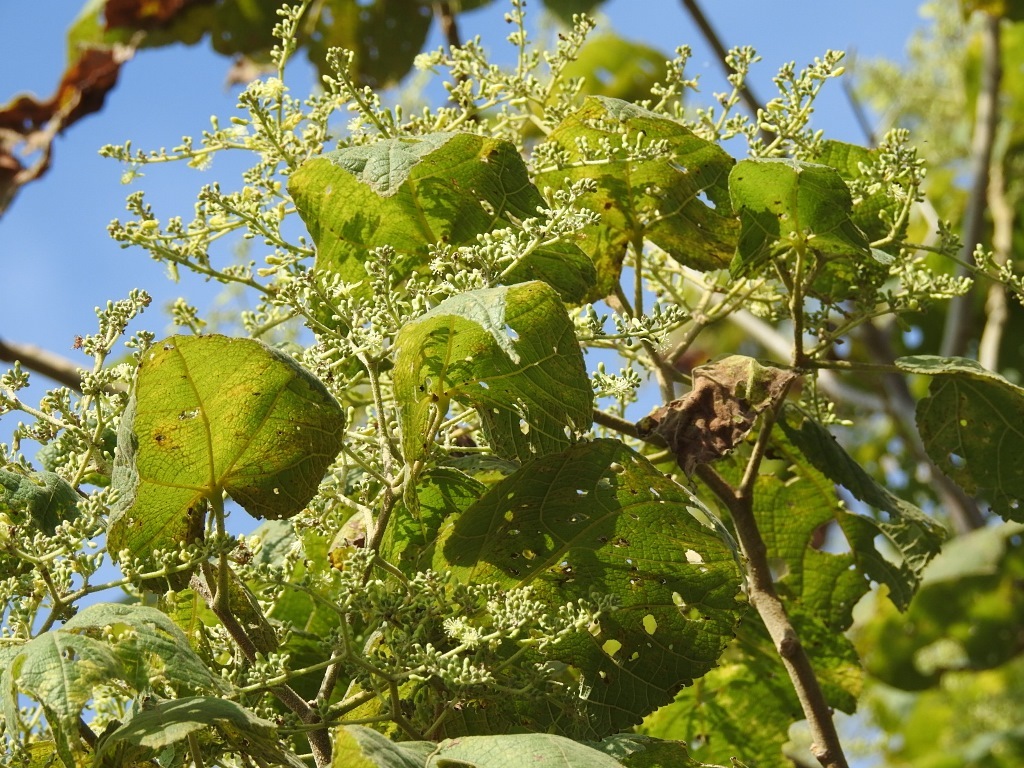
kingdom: Plantae
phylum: Tracheophyta
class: Magnoliopsida
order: Malvales
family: Malvaceae
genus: Heliocarpus
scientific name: Heliocarpus americanus
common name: White moho
